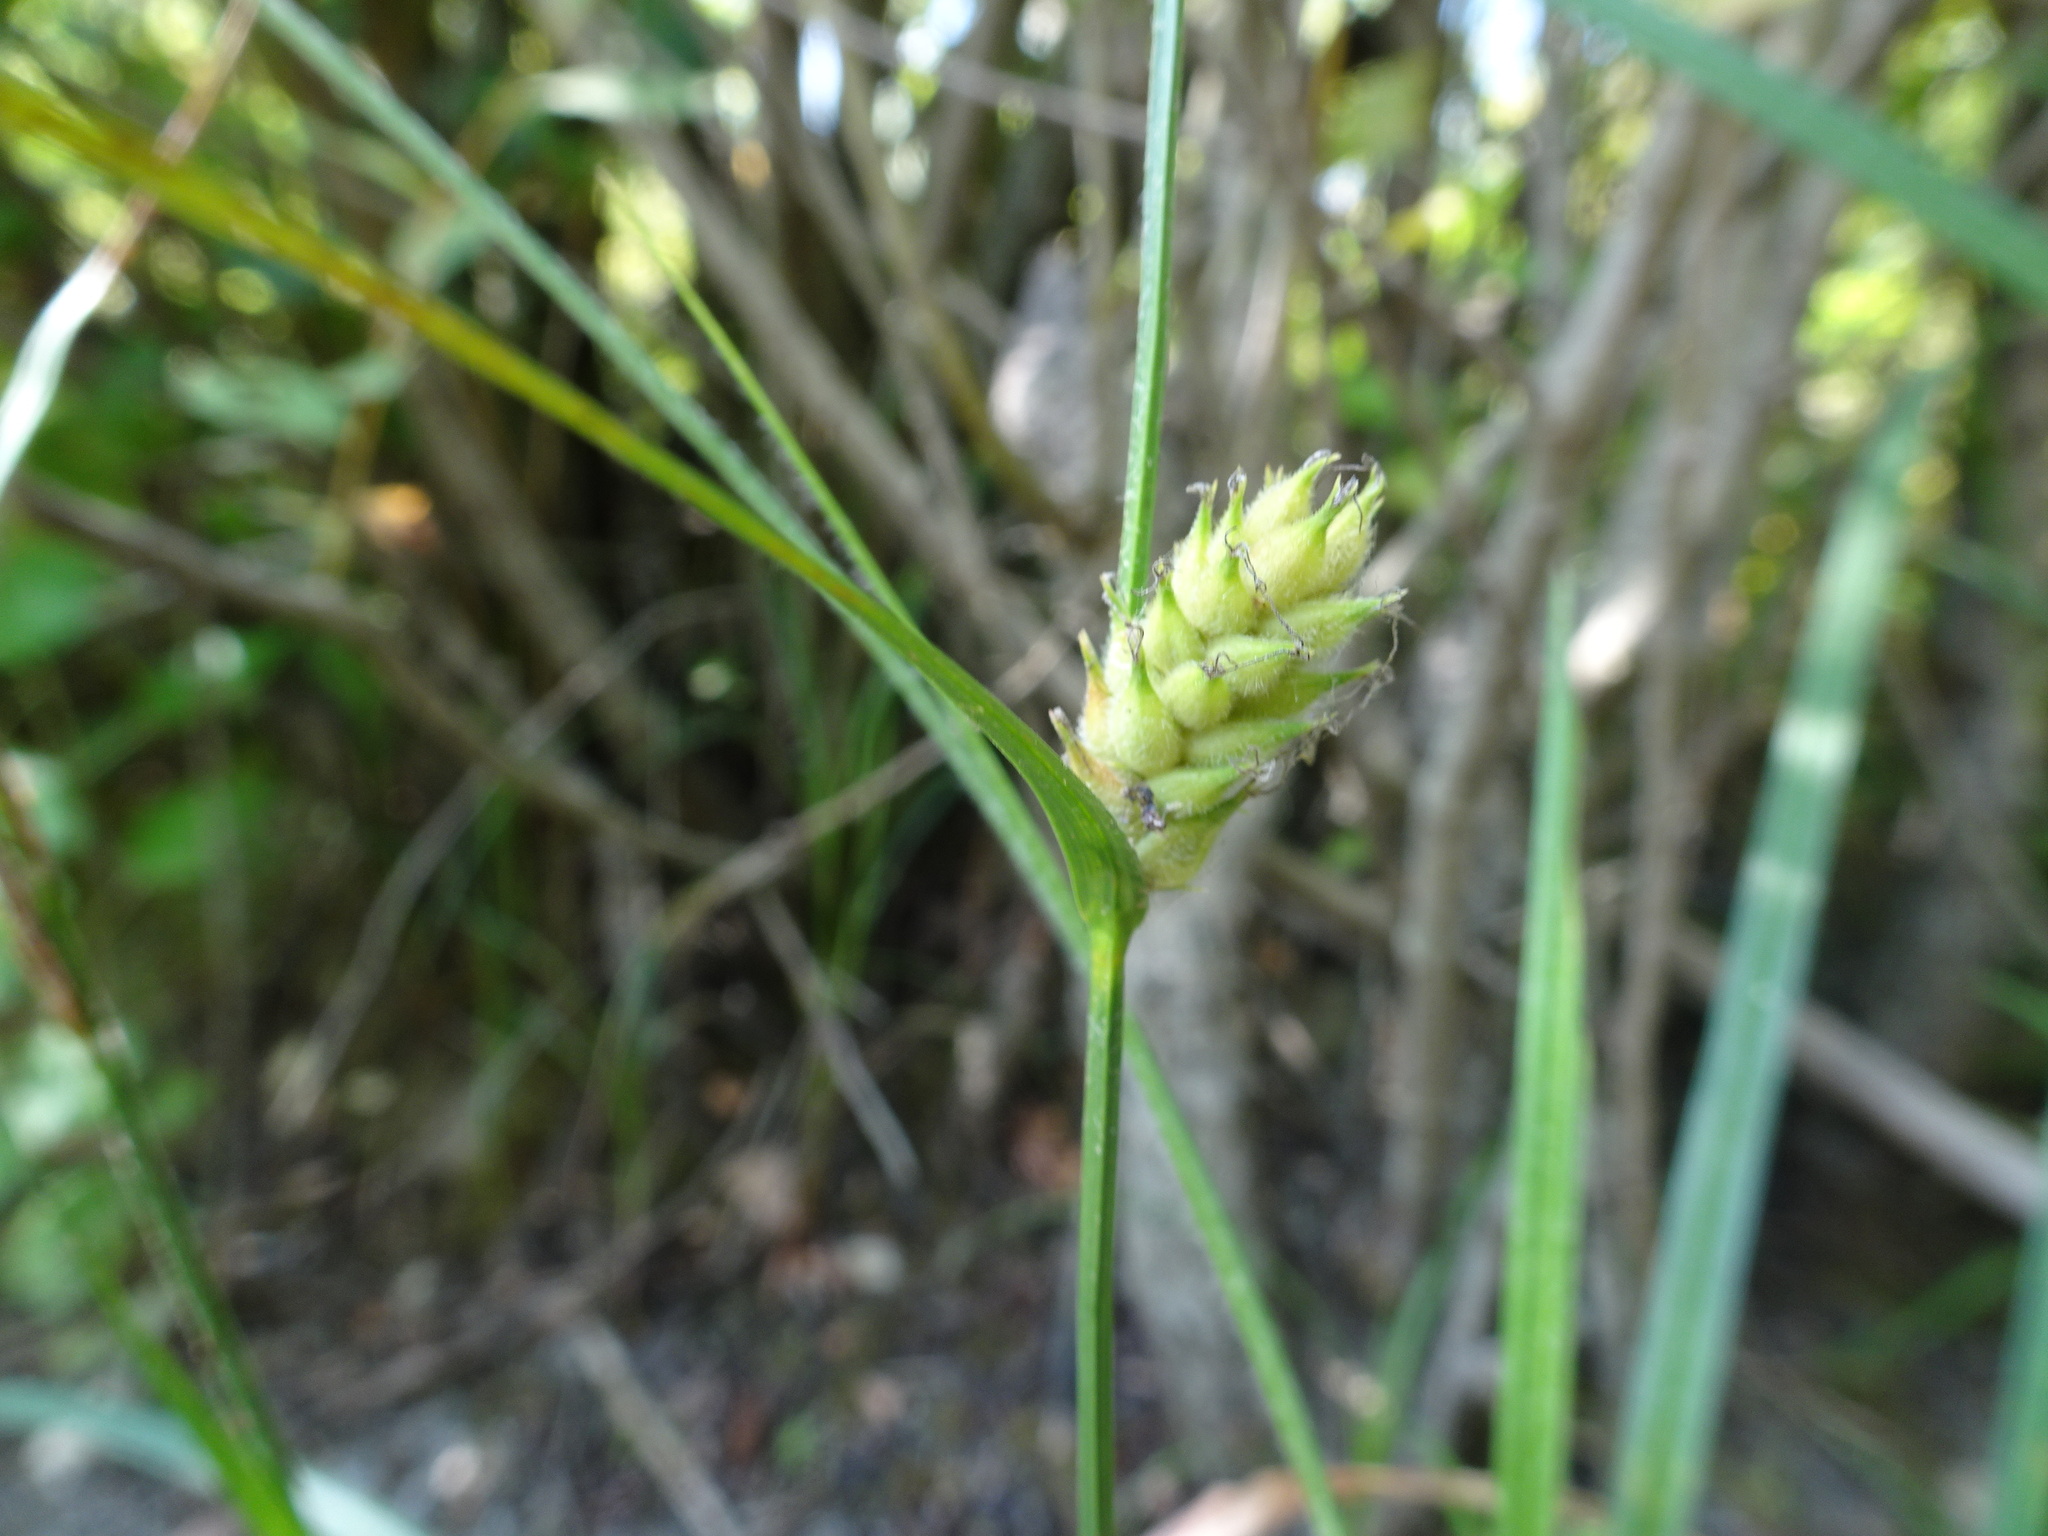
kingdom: Plantae
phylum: Tracheophyta
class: Liliopsida
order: Poales
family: Cyperaceae
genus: Carex
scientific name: Carex hirta
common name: Hairy sedge
